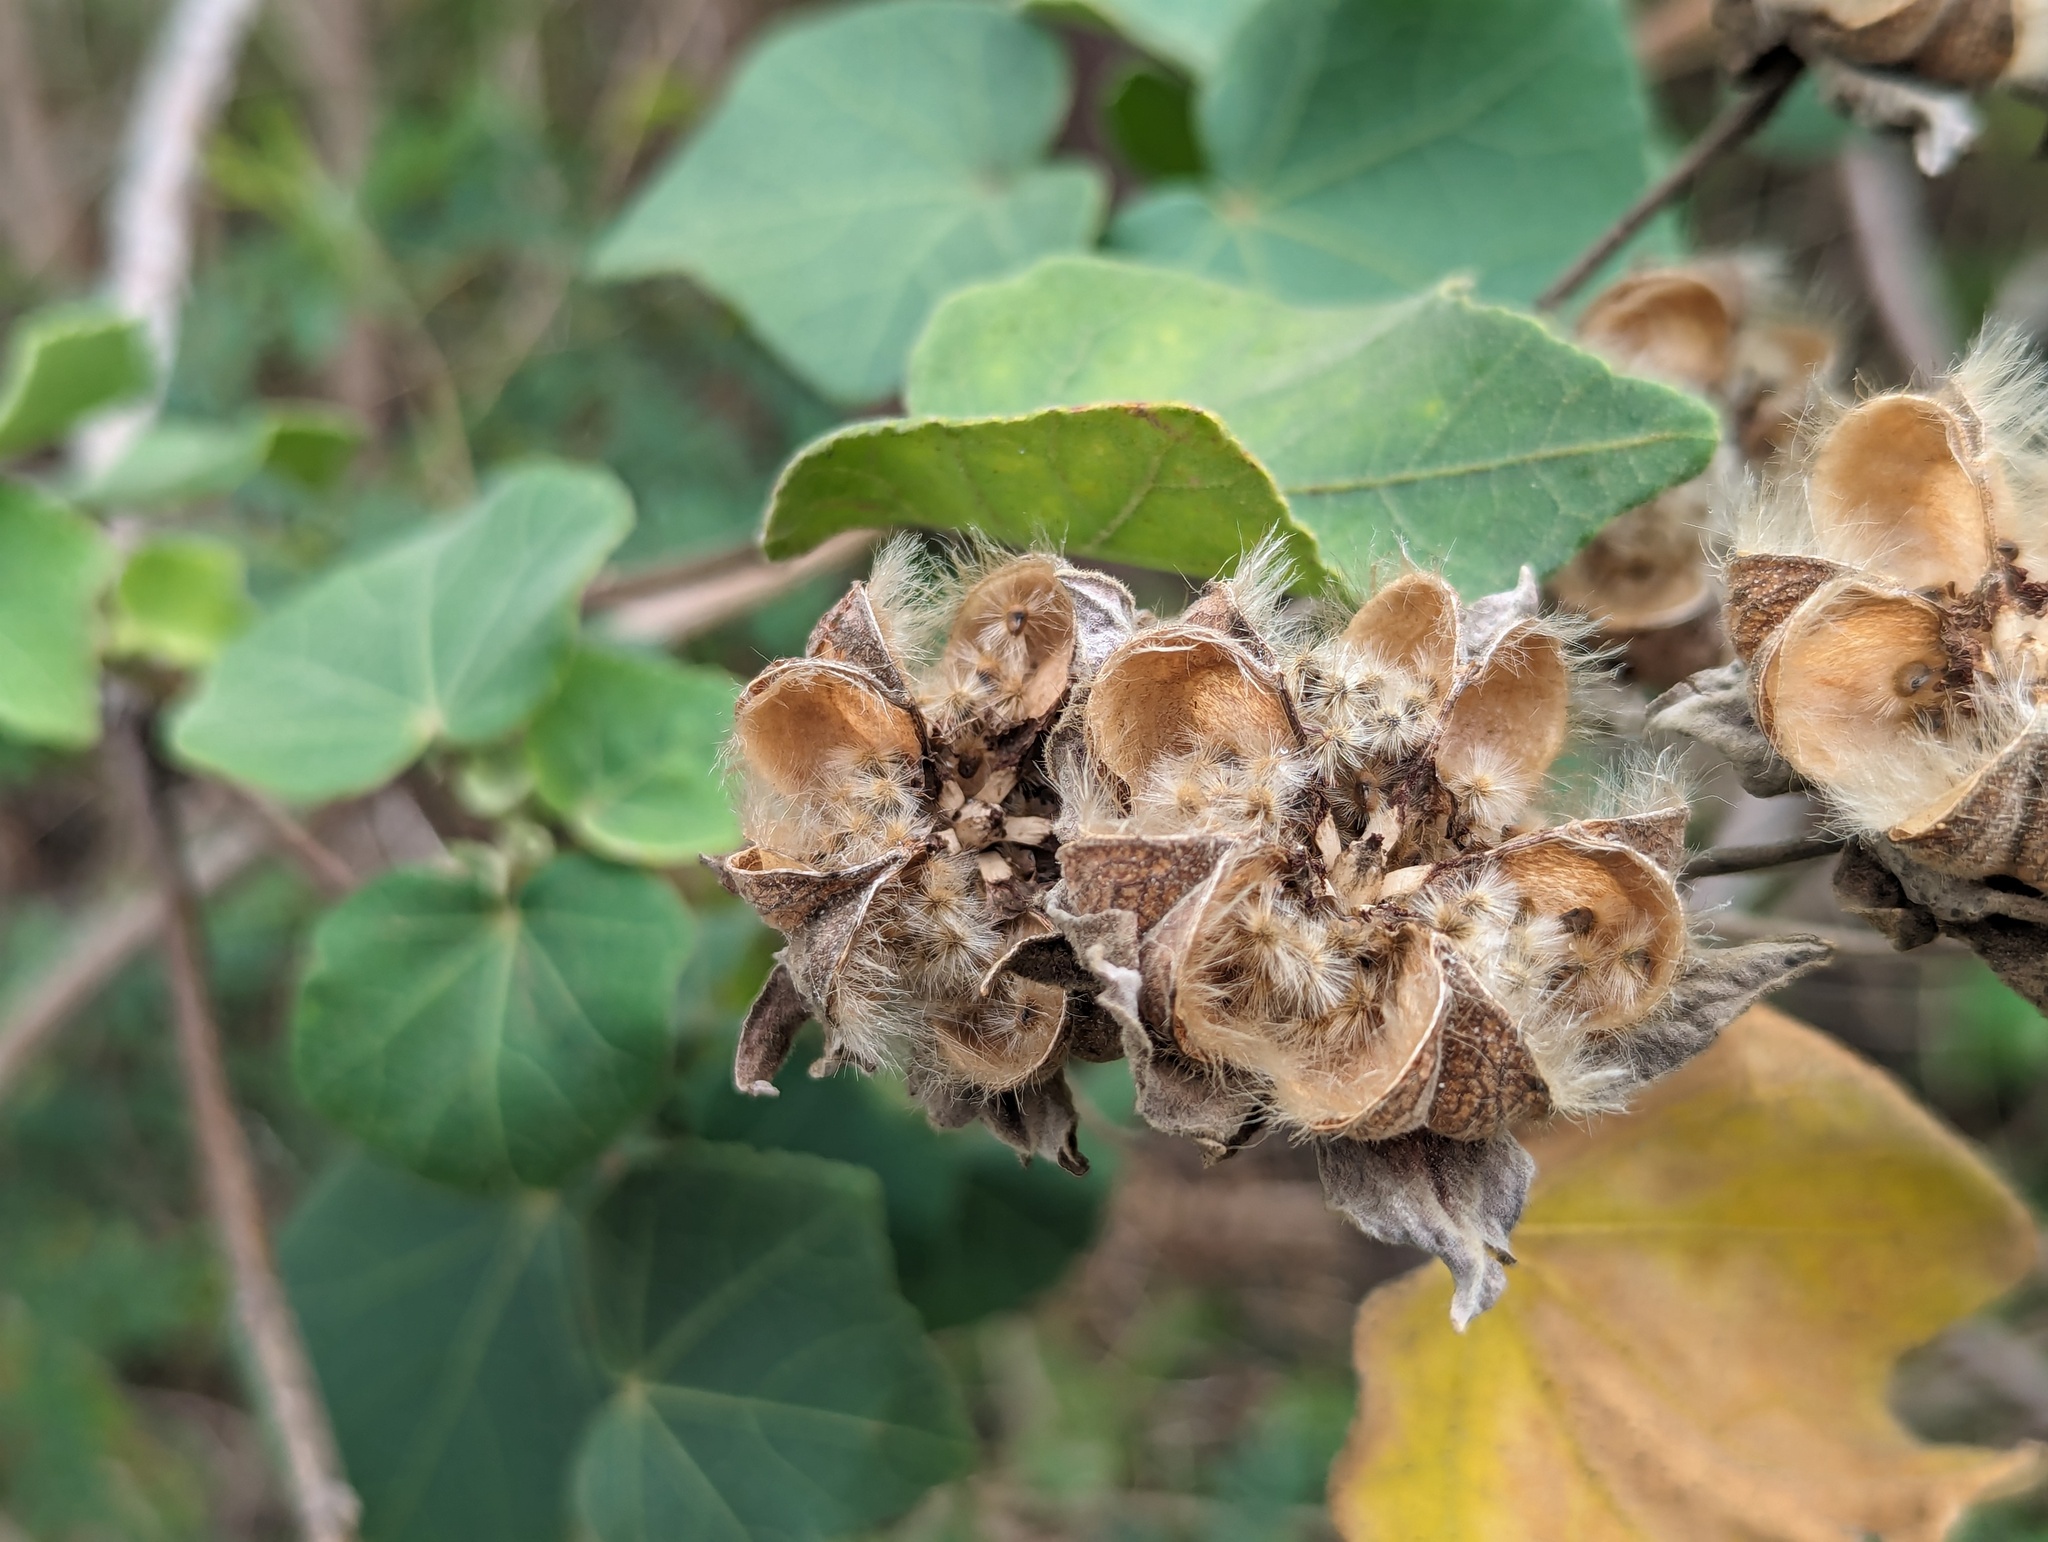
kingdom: Plantae
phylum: Tracheophyta
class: Magnoliopsida
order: Malvales
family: Malvaceae
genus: Hibiscus
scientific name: Hibiscus taiwanensis
